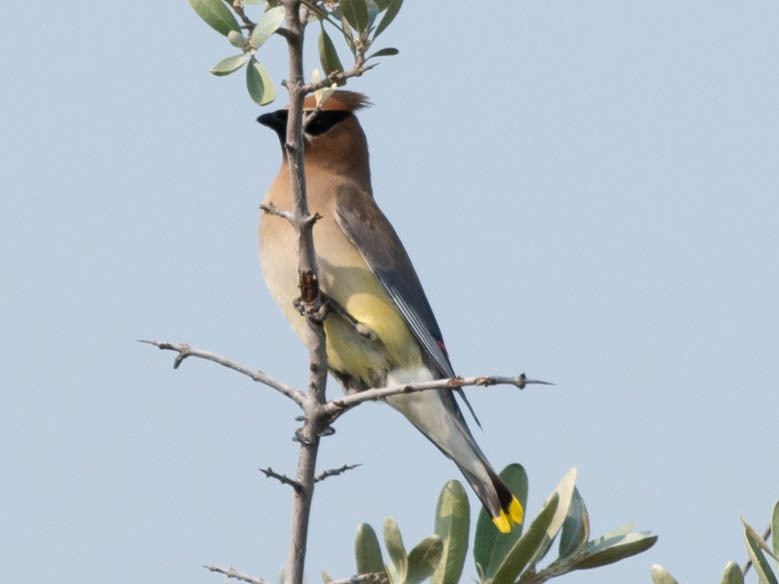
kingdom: Animalia
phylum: Chordata
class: Aves
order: Passeriformes
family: Bombycillidae
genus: Bombycilla
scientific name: Bombycilla cedrorum
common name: Cedar waxwing
